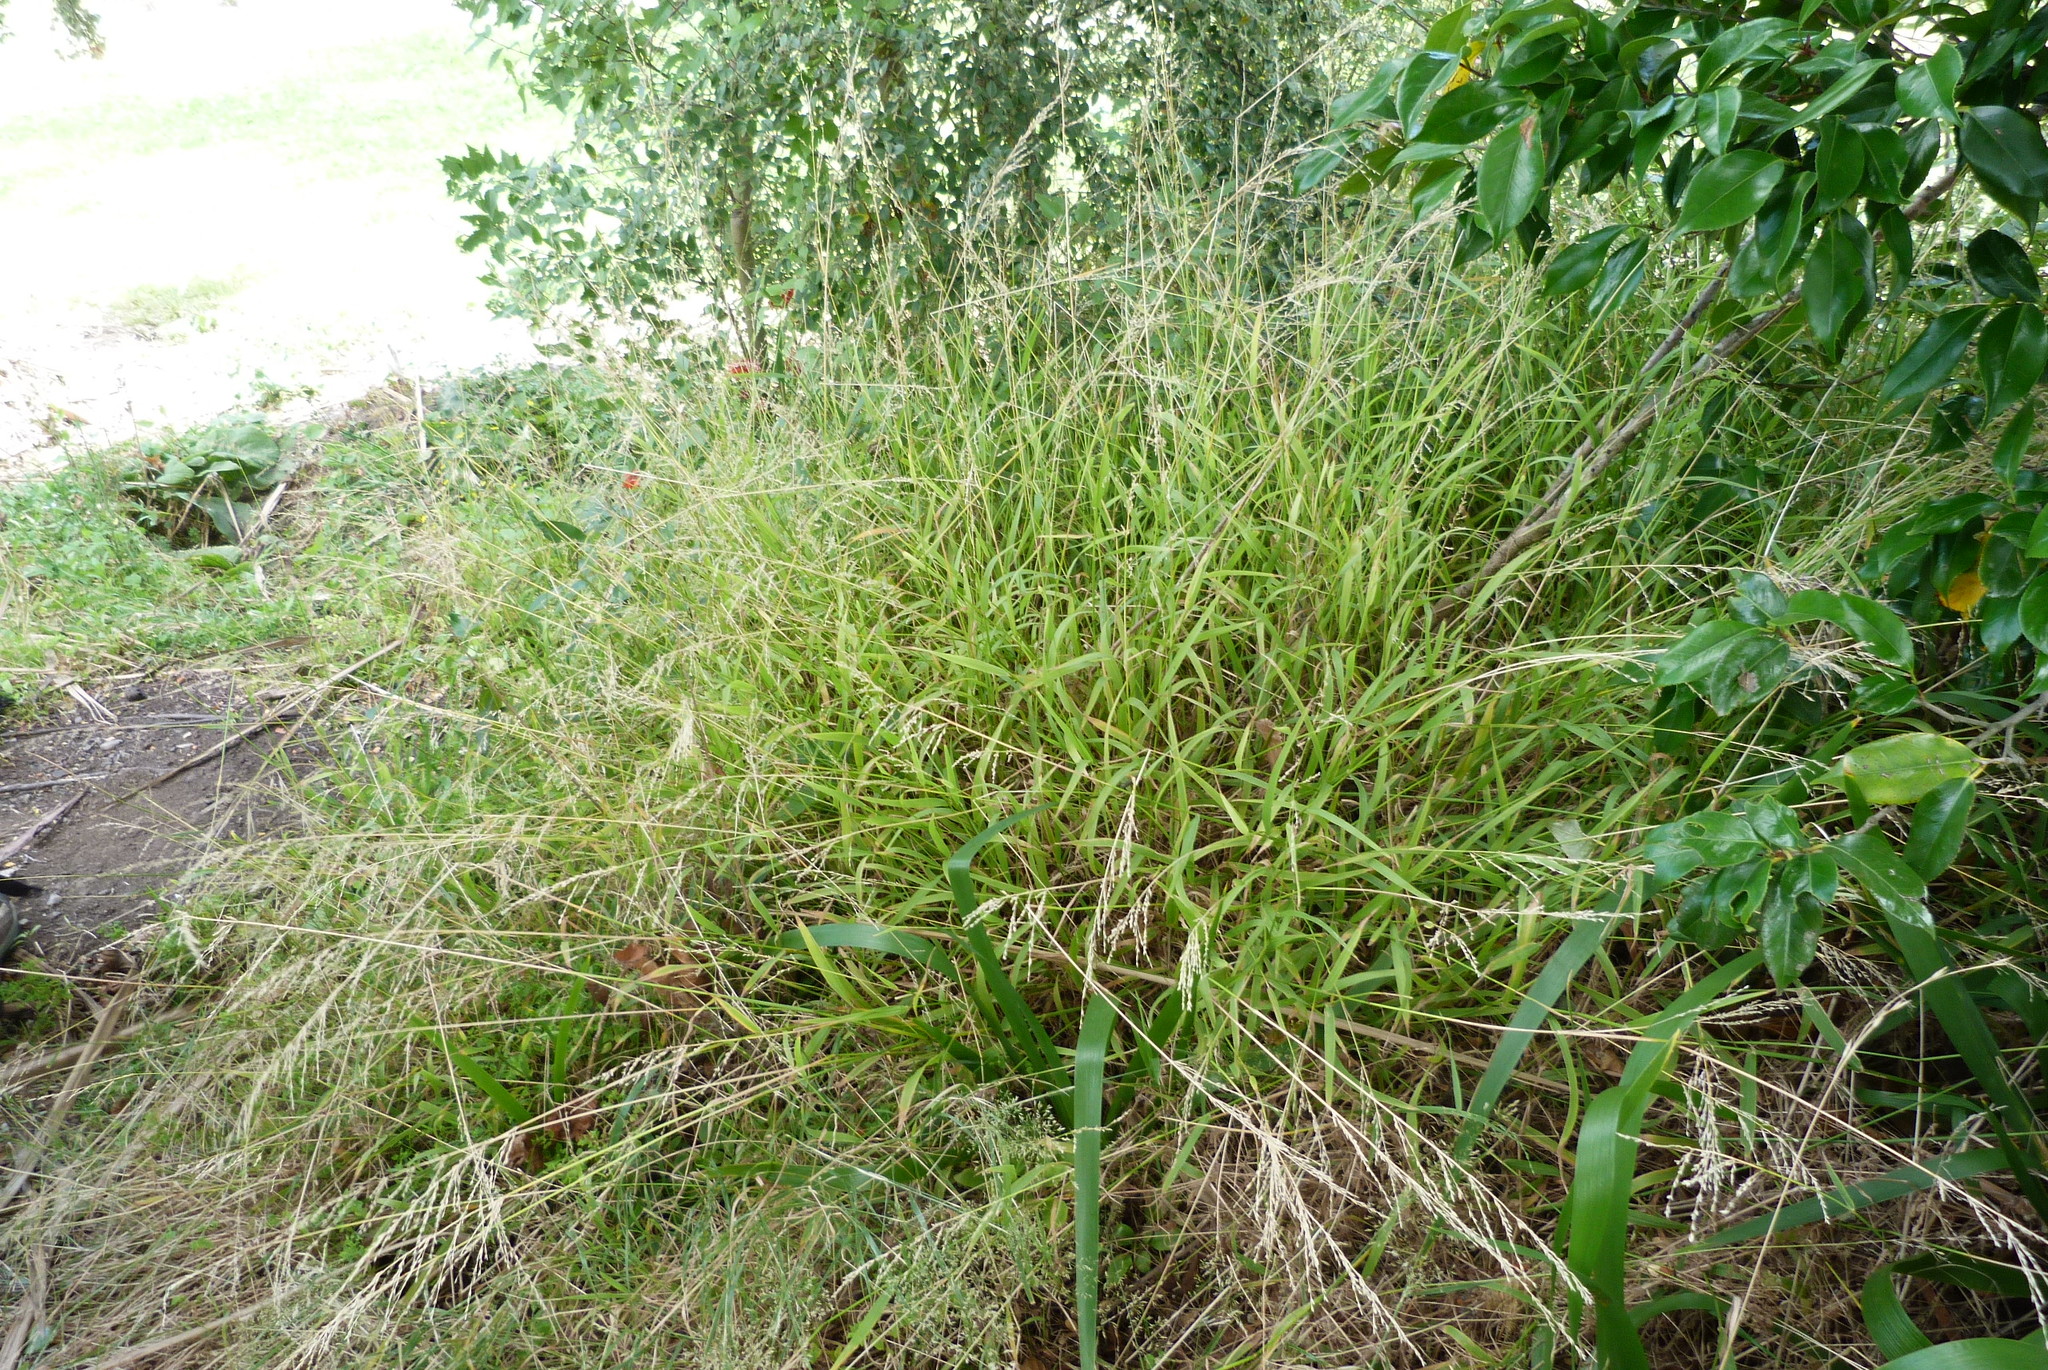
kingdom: Plantae
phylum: Tracheophyta
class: Liliopsida
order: Poales
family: Poaceae
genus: Ehrharta
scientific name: Ehrharta erecta
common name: Panic veldtgrass
